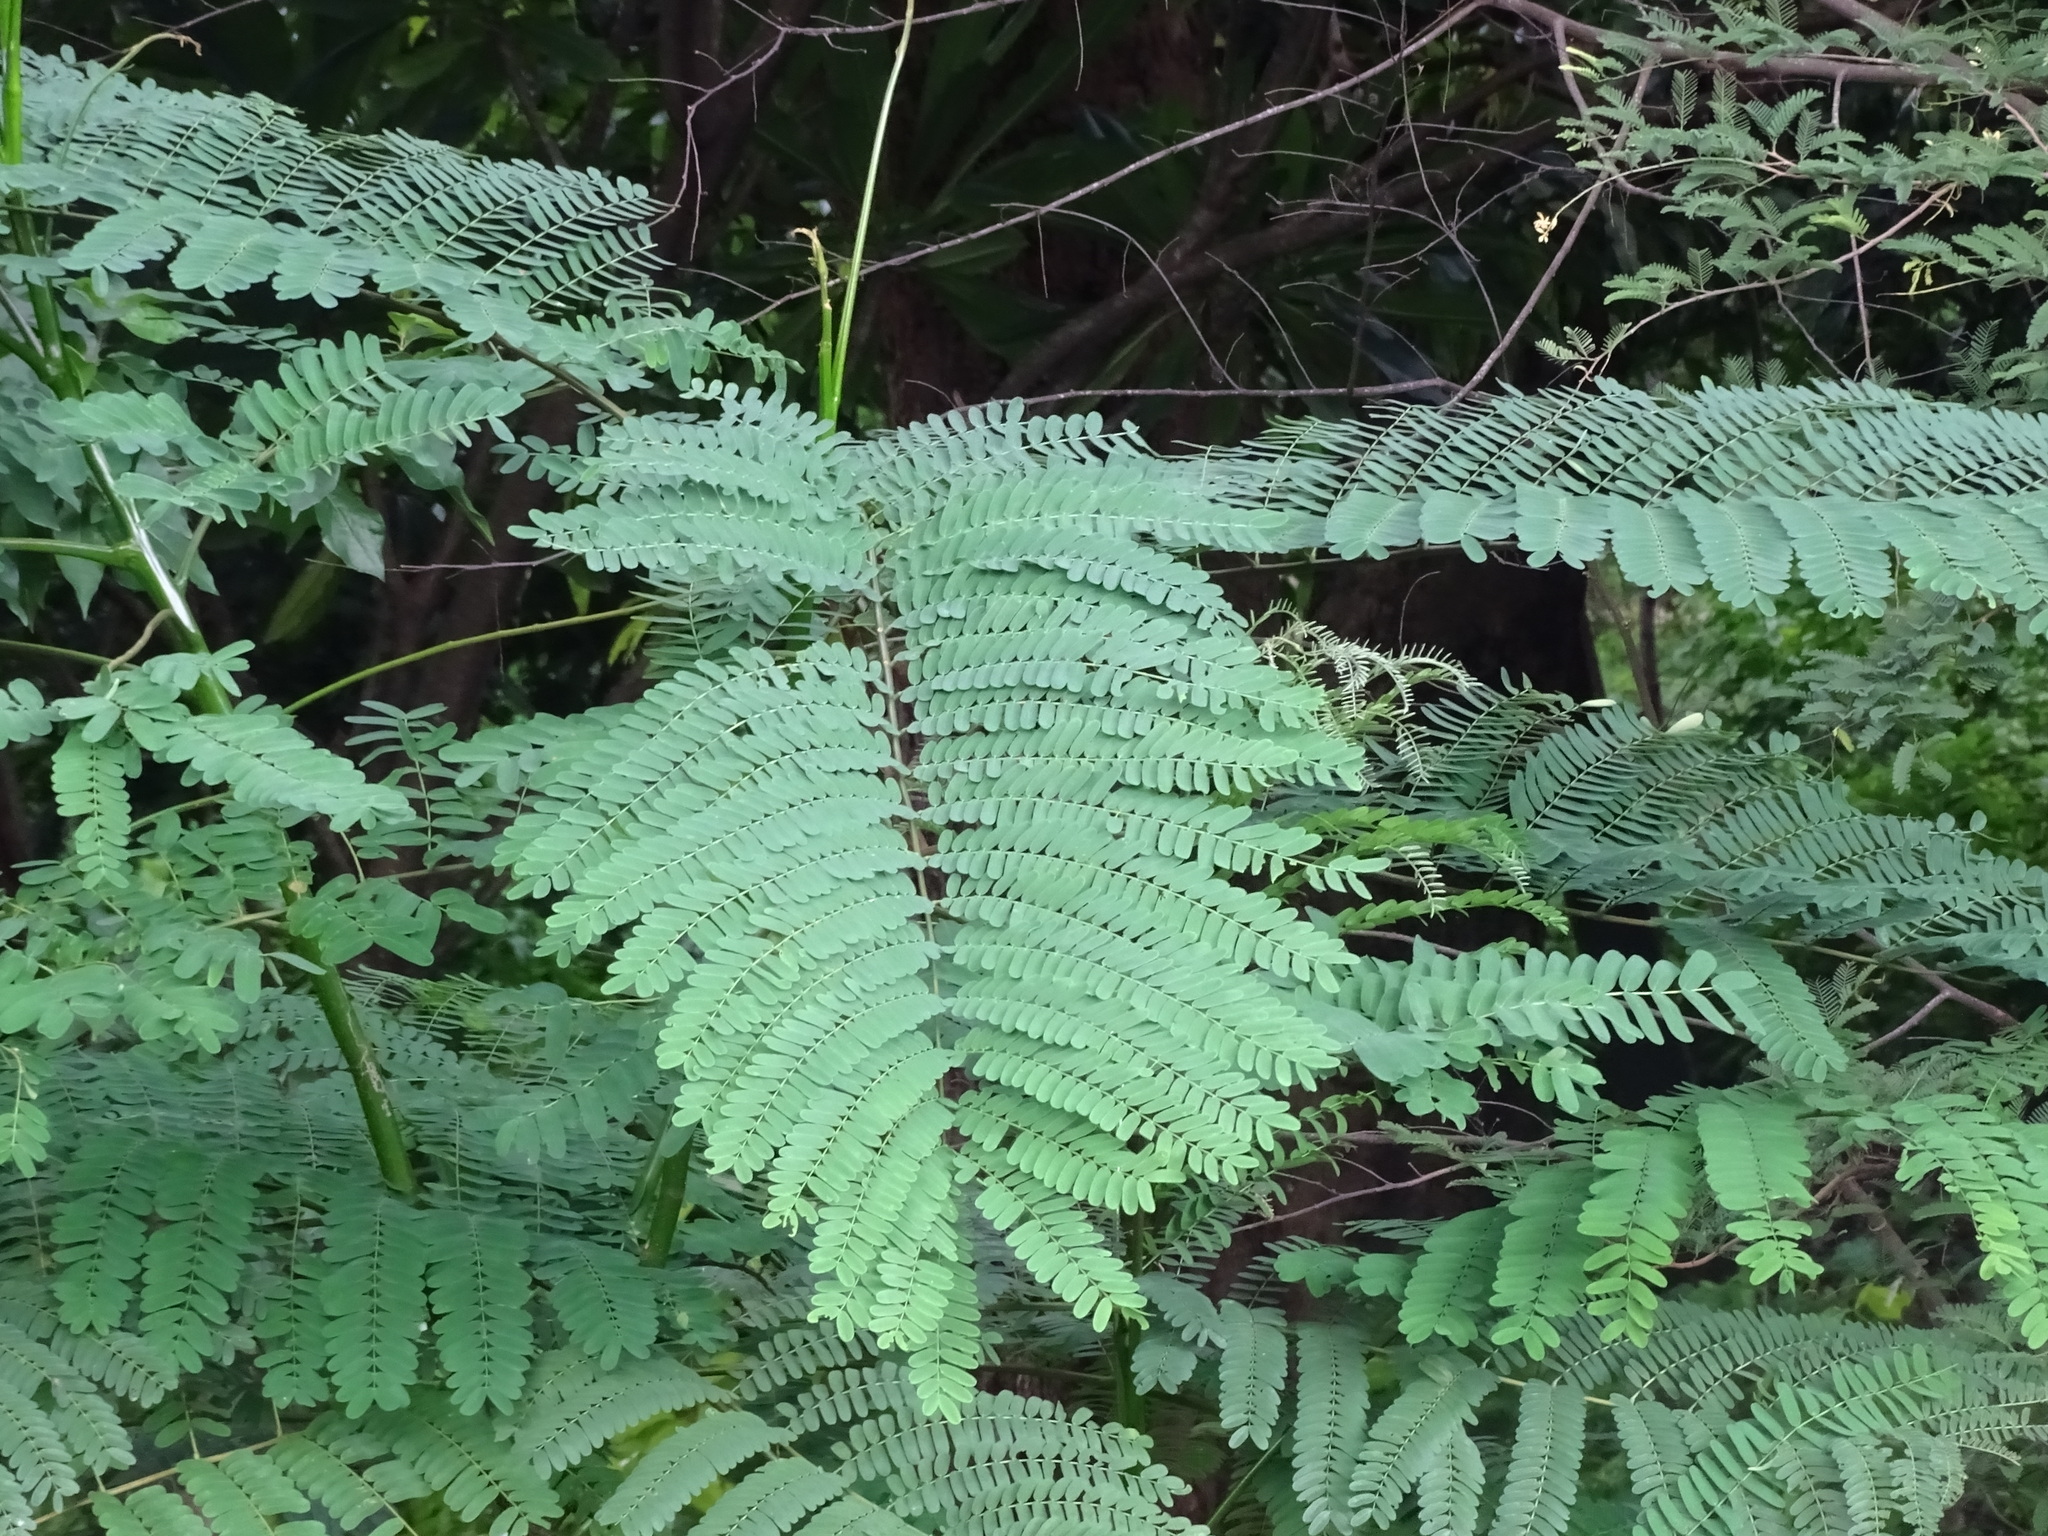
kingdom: Plantae
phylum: Tracheophyta
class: Magnoliopsida
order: Fabales
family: Fabaceae
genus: Schizolobium
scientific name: Schizolobium parahyba
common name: Brazilian firetree
